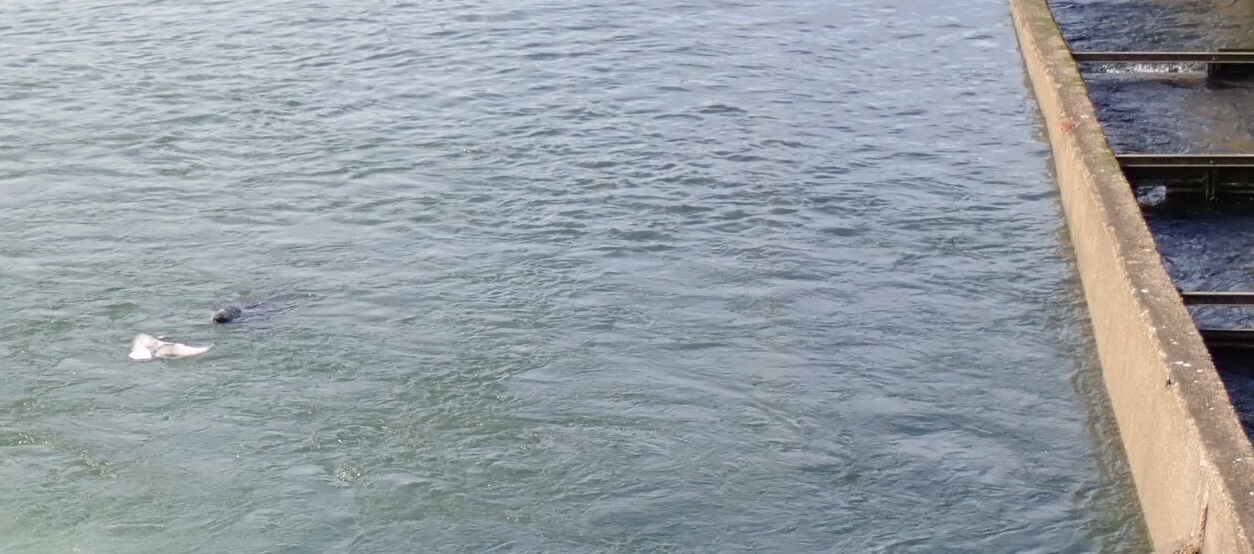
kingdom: Animalia
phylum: Chordata
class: Mammalia
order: Carnivora
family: Phocidae
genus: Phoca
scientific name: Phoca vitulina
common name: Harbor seal
